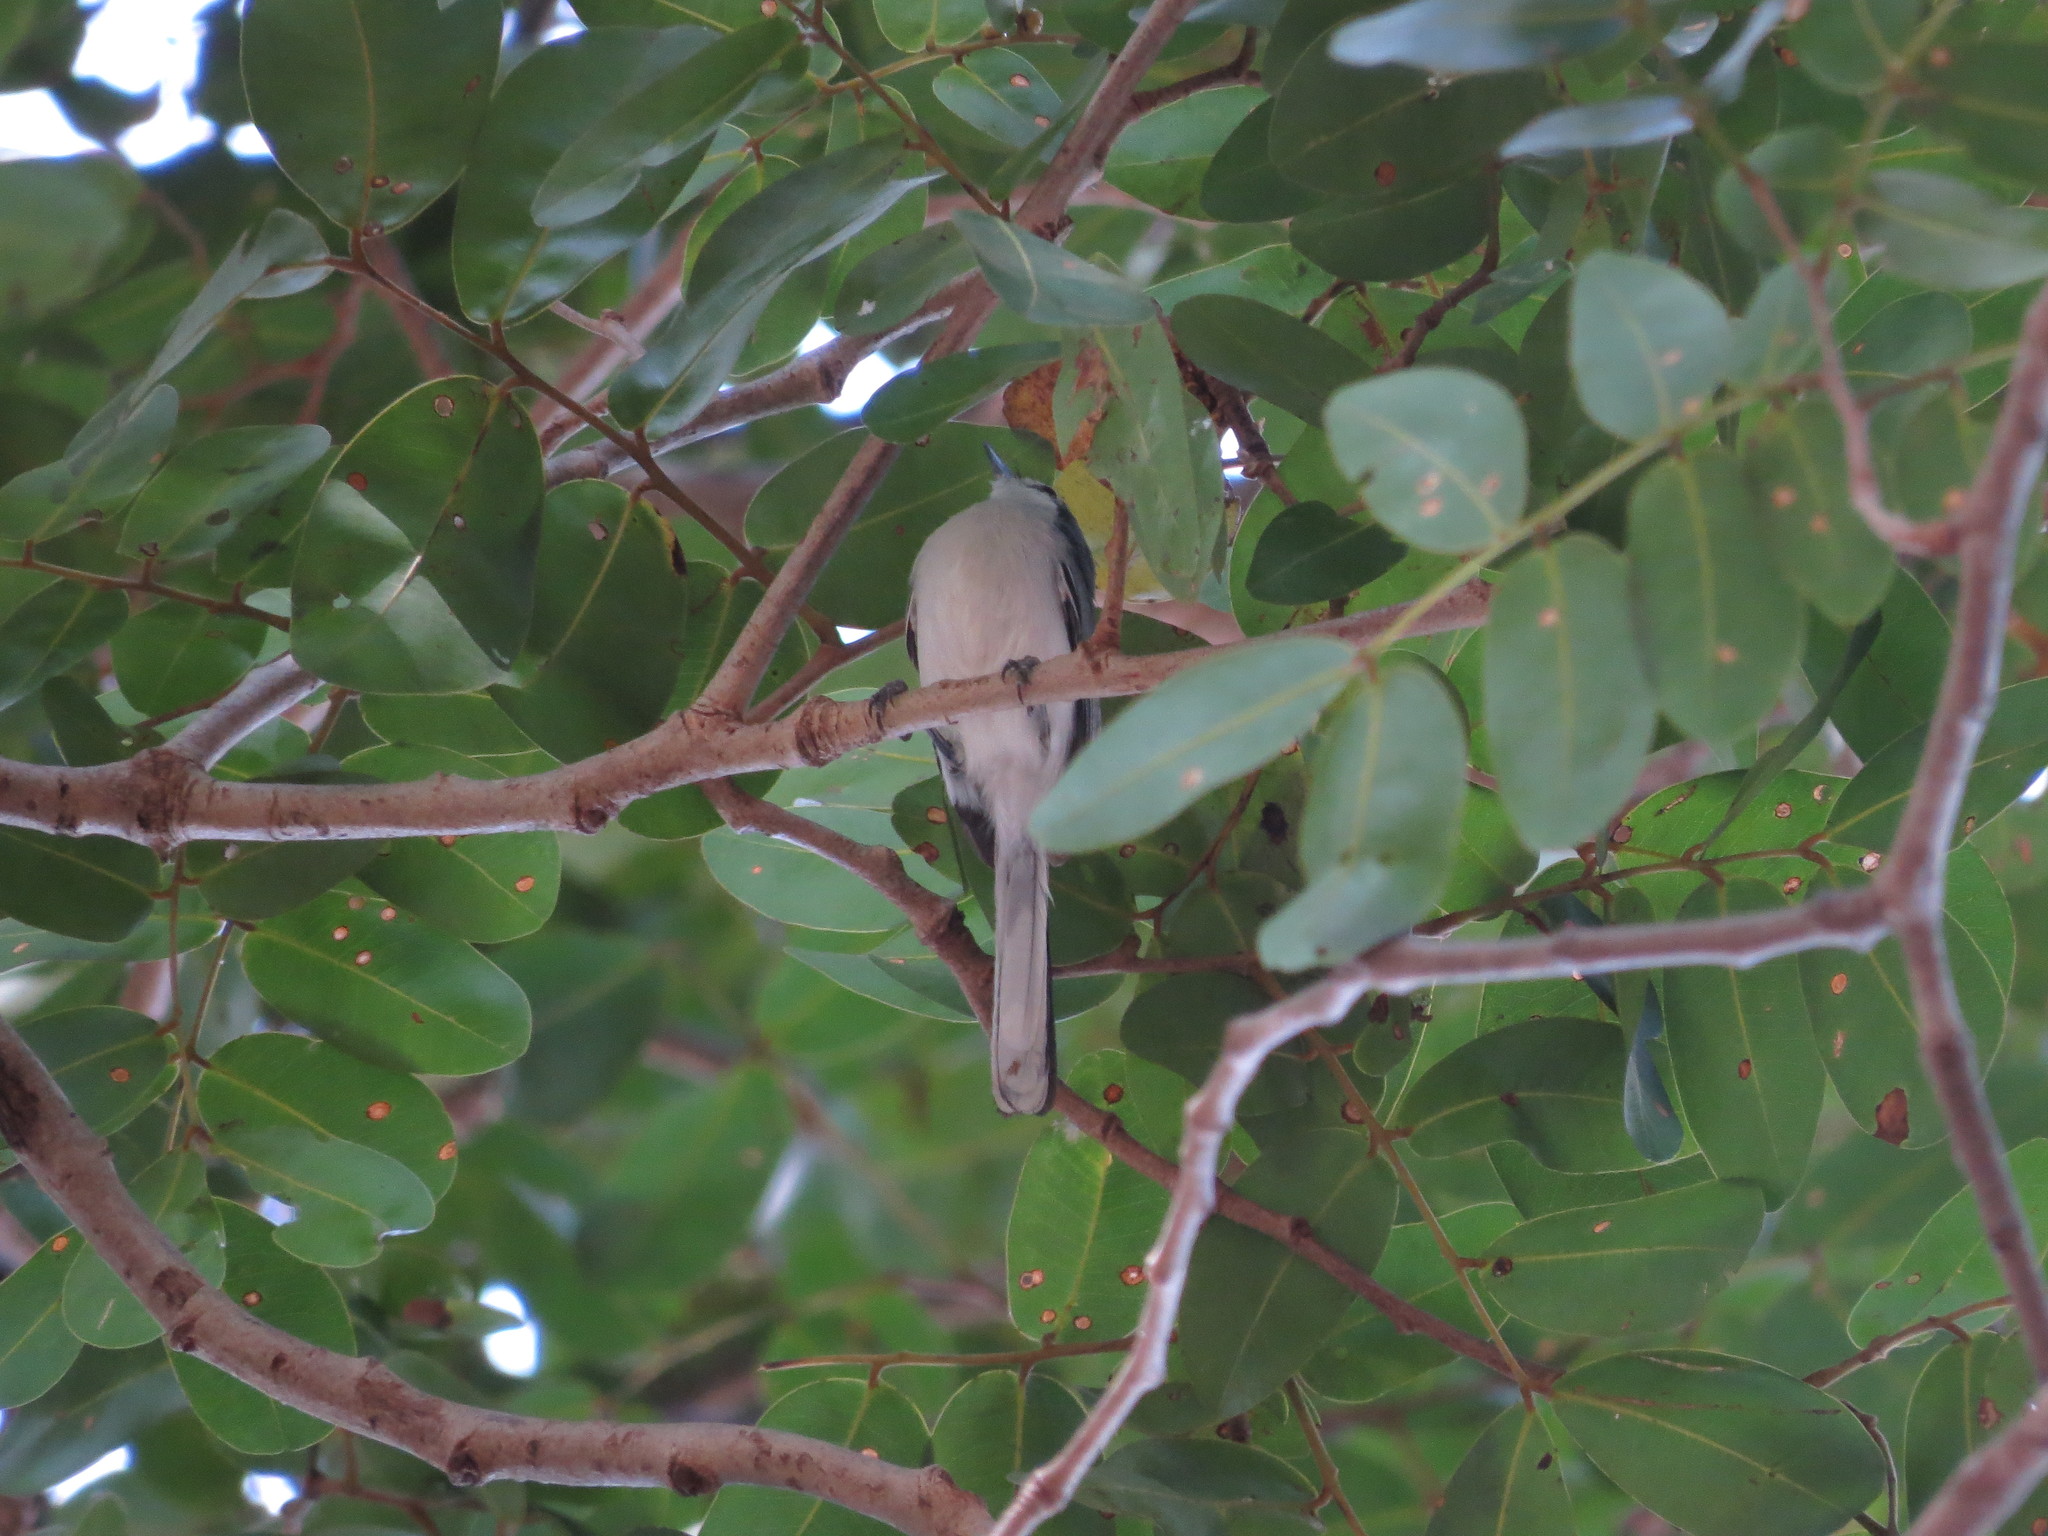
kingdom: Animalia
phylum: Chordata
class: Aves
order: Passeriformes
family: Polioptilidae
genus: Polioptila
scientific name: Polioptila dumicola
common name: Masked gnatcatcher
